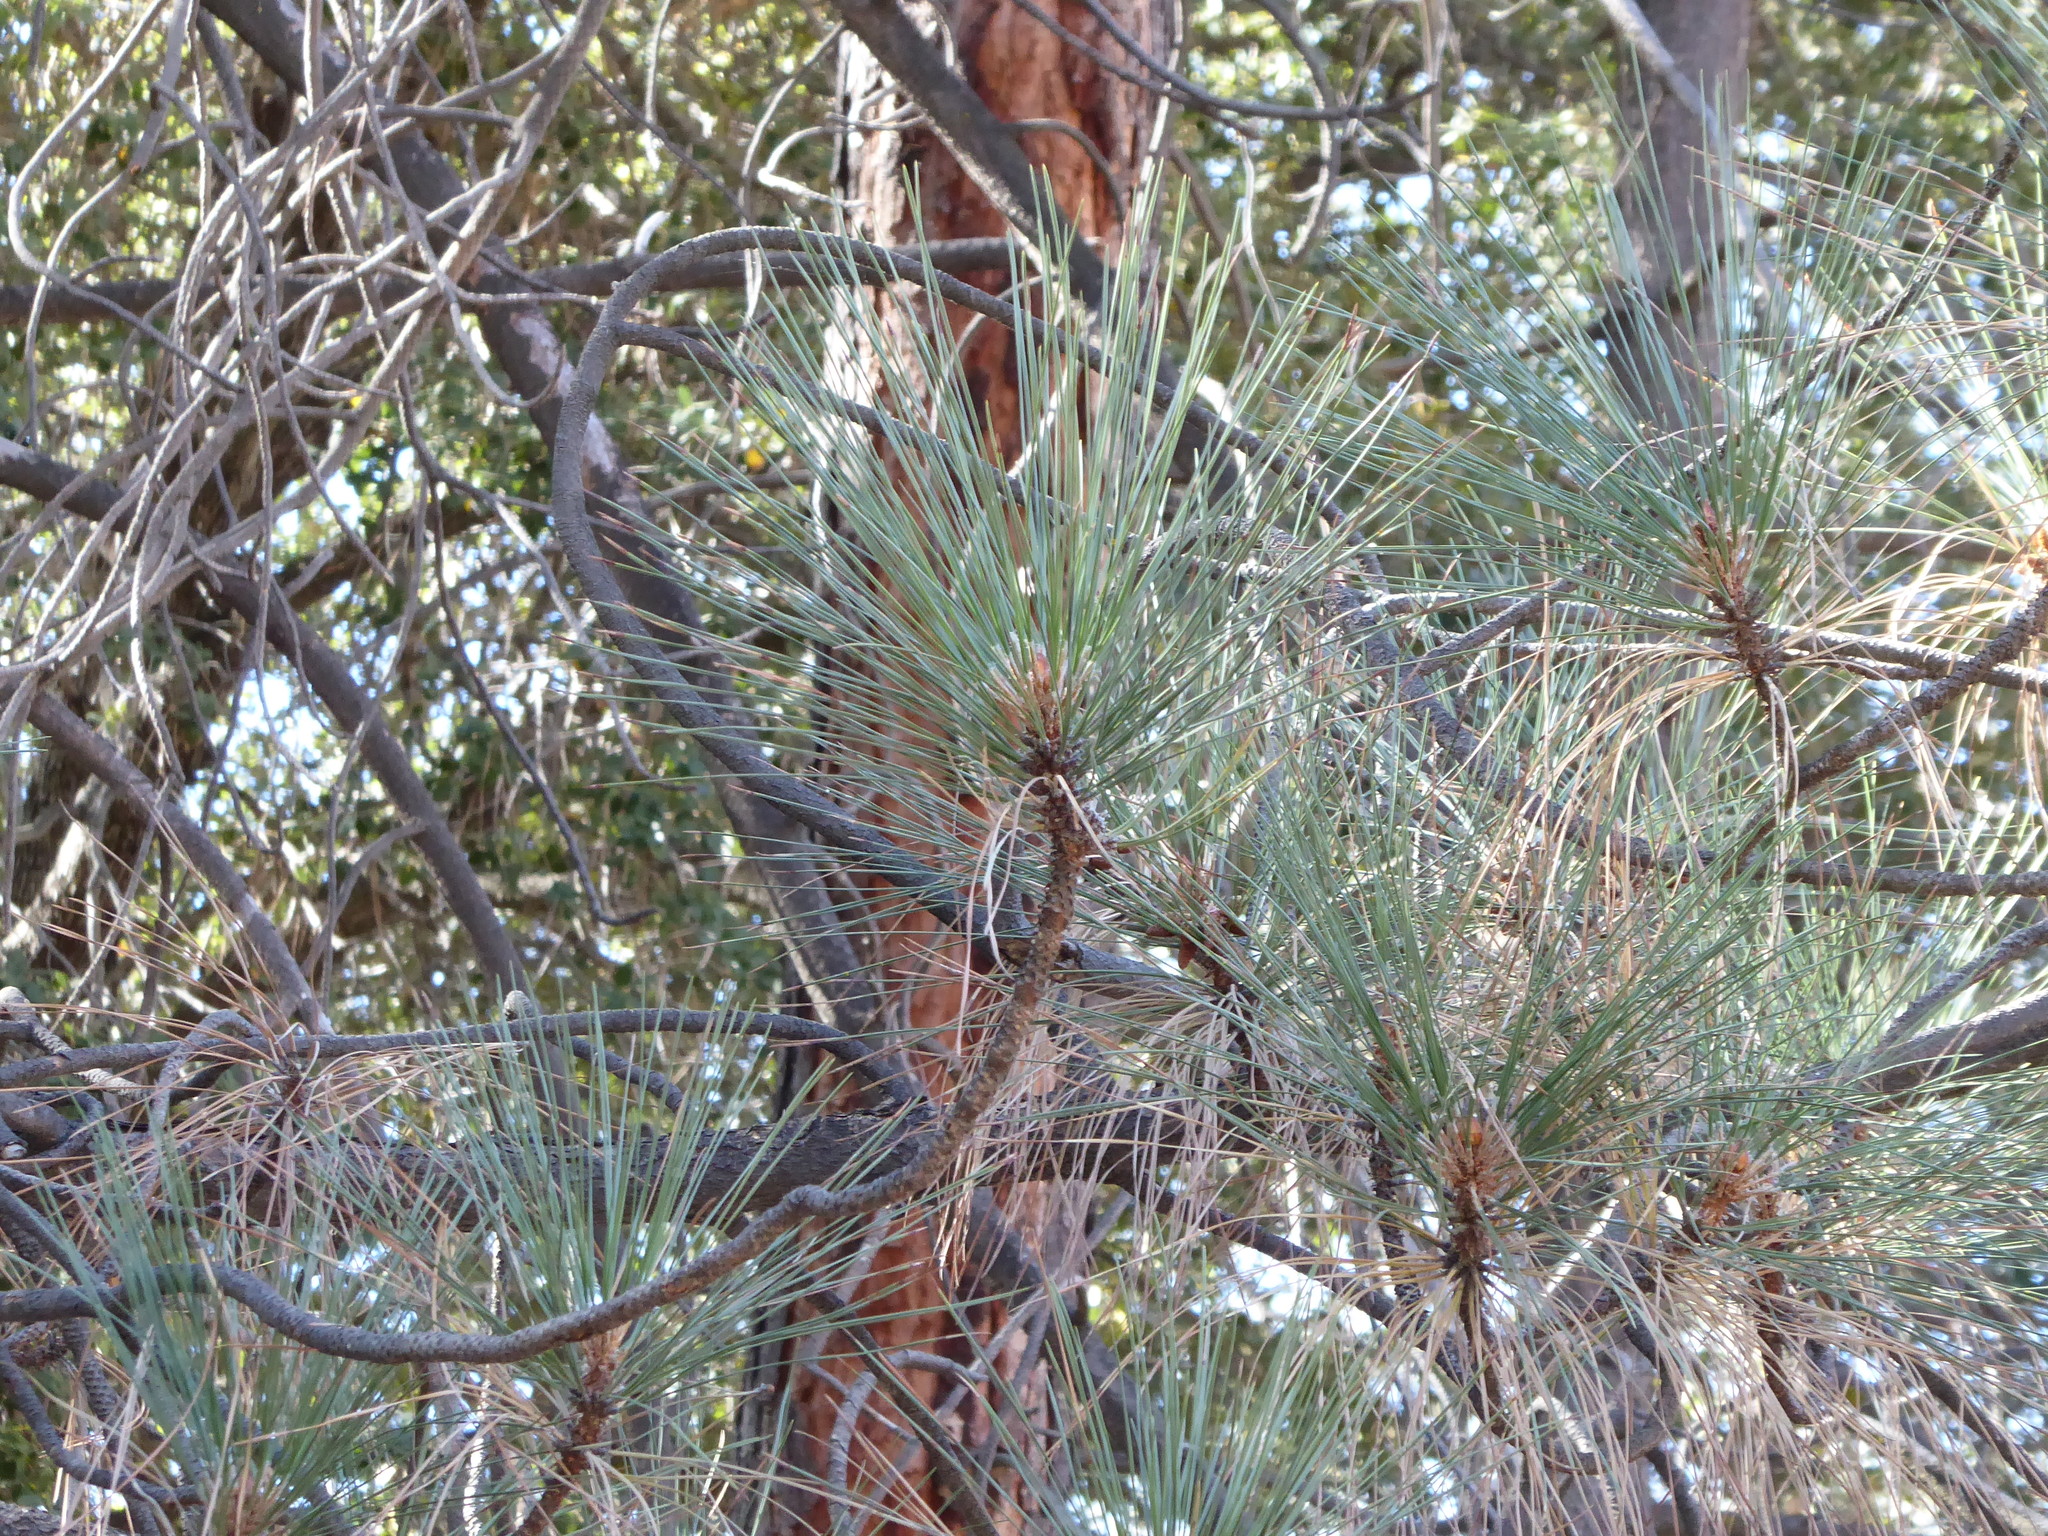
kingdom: Plantae
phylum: Tracheophyta
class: Pinopsida
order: Pinales
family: Pinaceae
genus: Pinus
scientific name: Pinus coulteri
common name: Coulter pine
